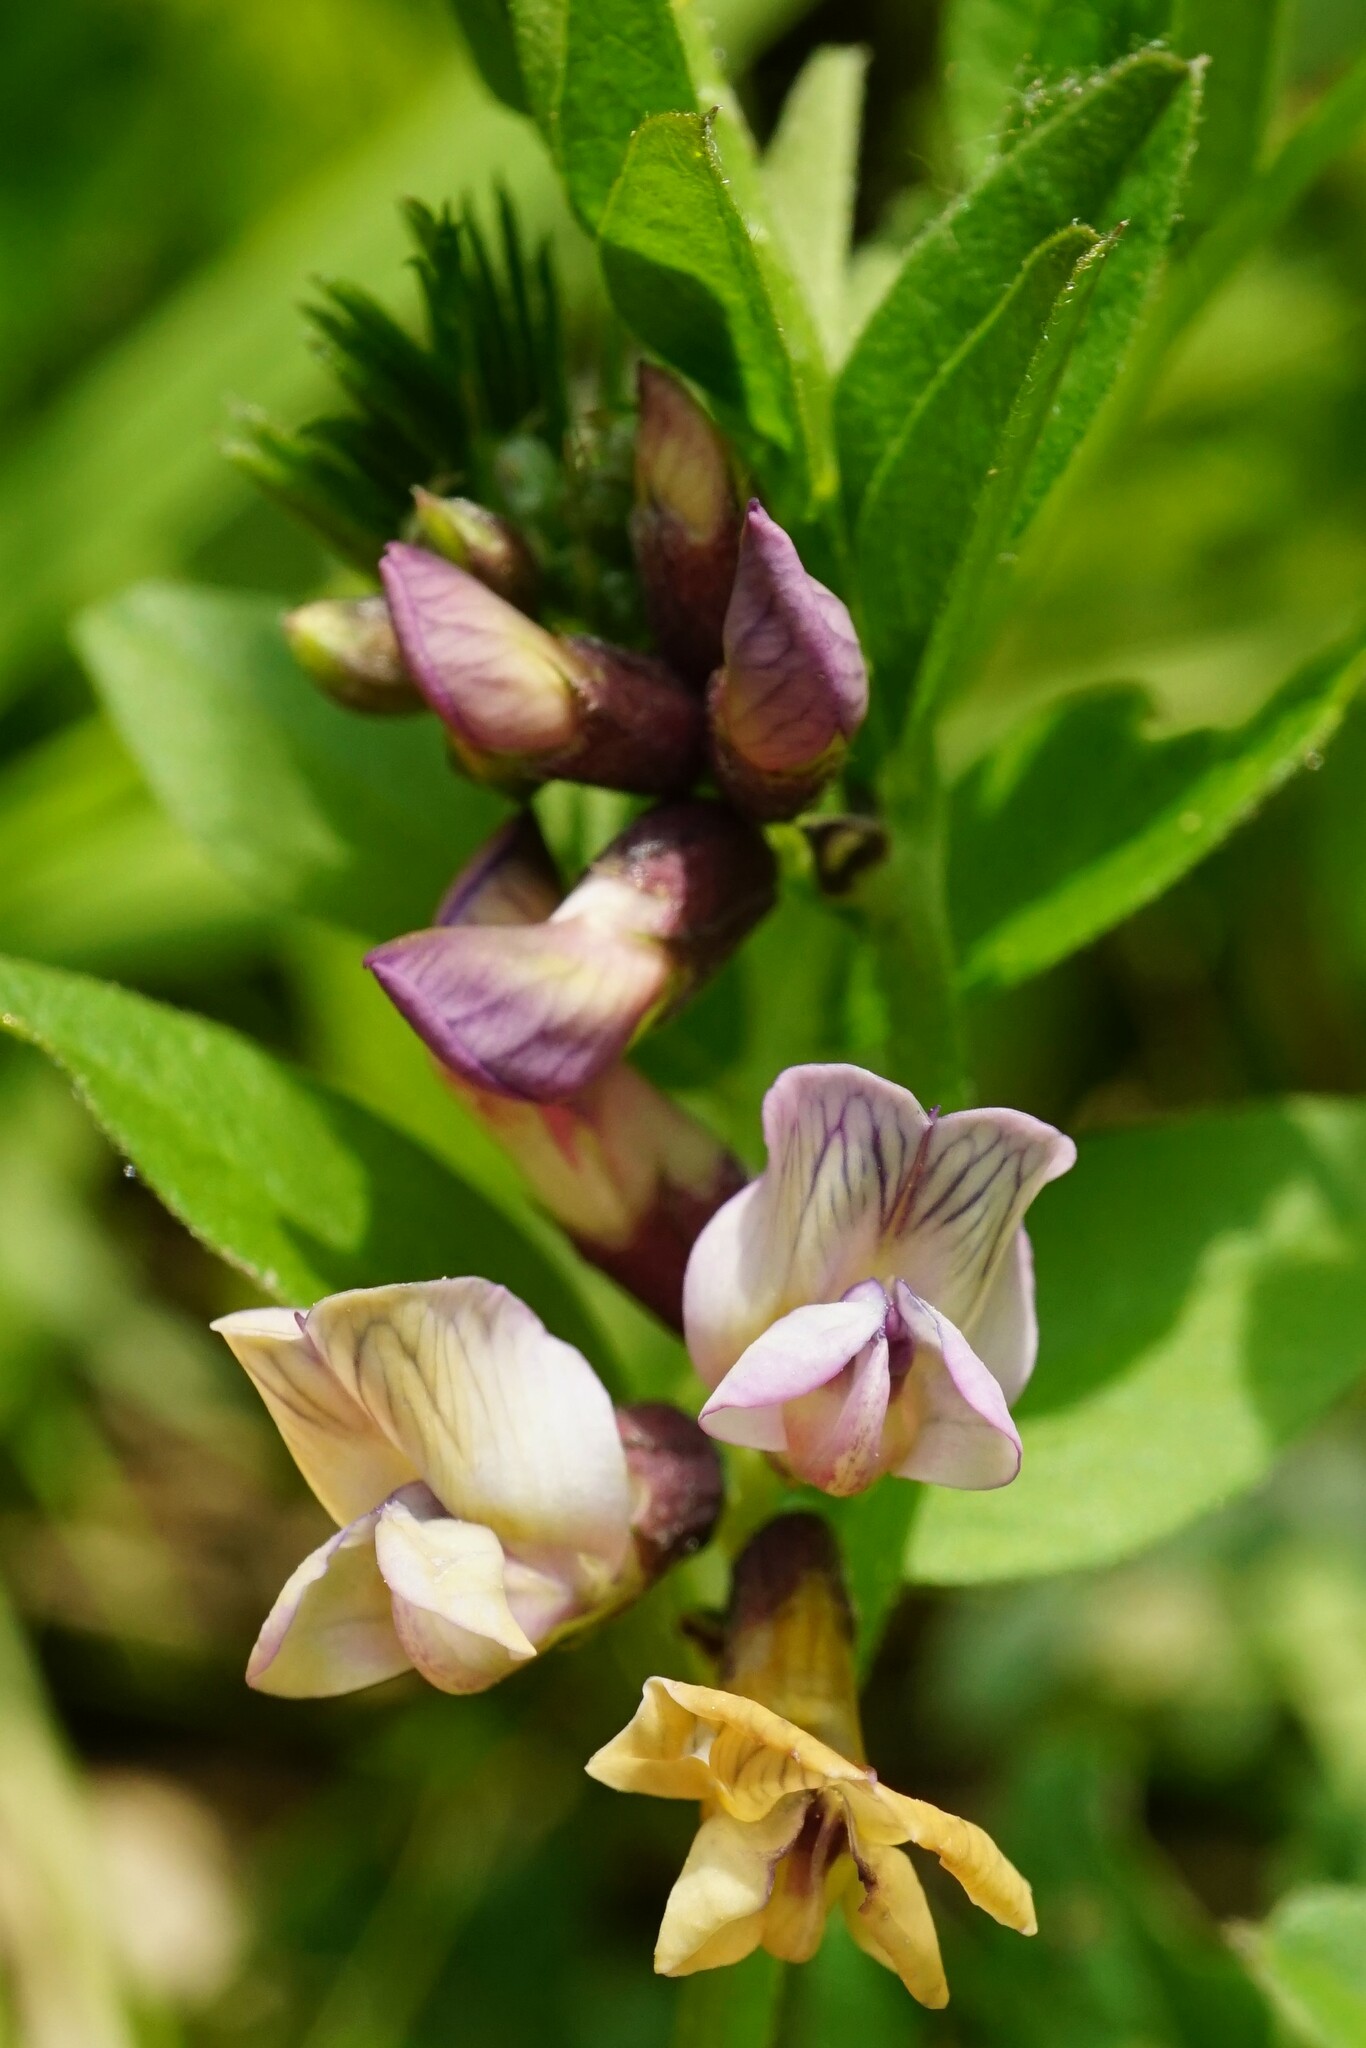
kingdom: Plantae
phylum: Tracheophyta
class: Magnoliopsida
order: Fabales
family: Fabaceae
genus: Vicia
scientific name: Vicia sepium
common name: Bush vetch
